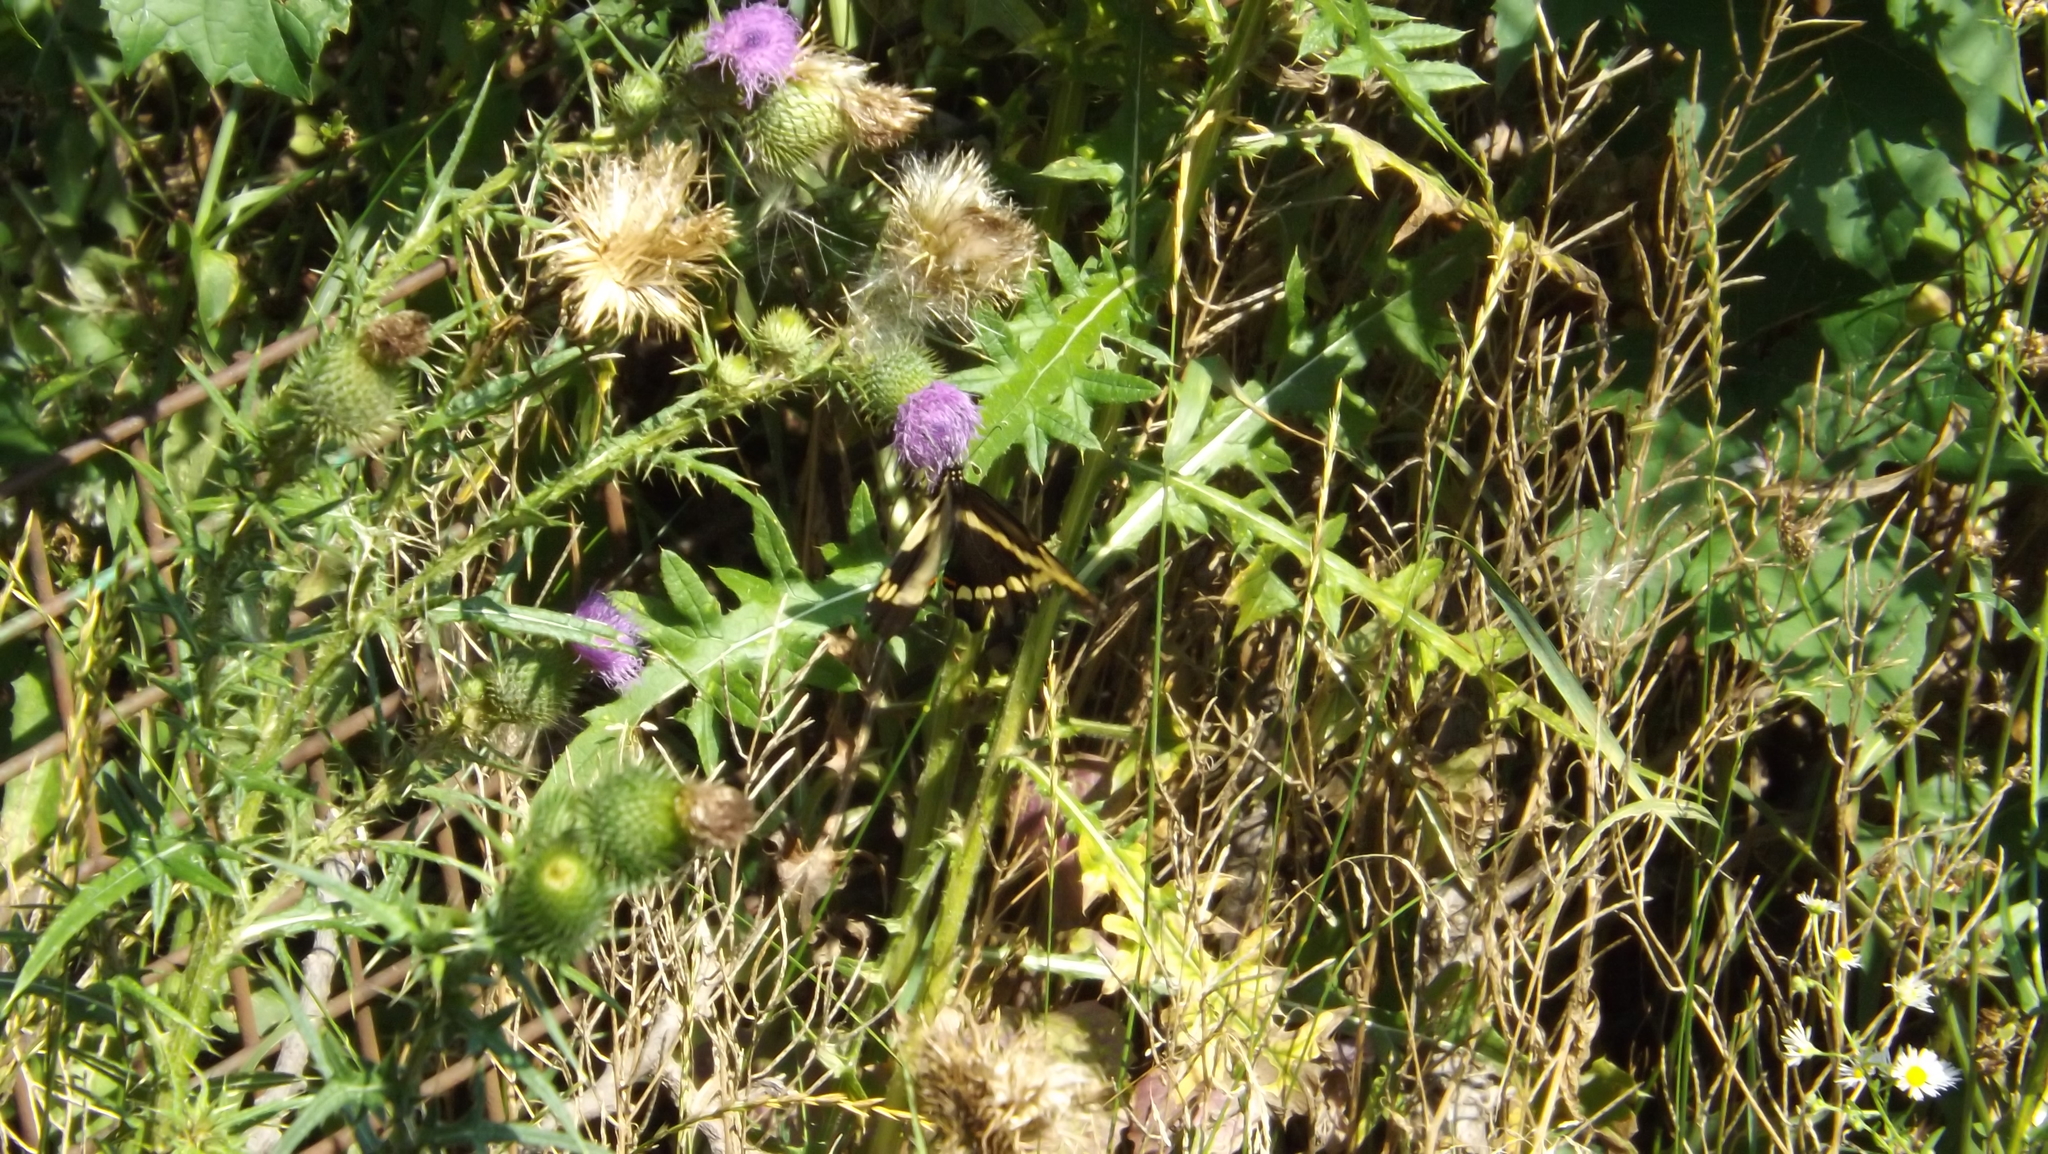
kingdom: Animalia
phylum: Arthropoda
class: Insecta
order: Lepidoptera
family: Papilionidae
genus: Papilio
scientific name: Papilio cresphontes
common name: Giant swallowtail
